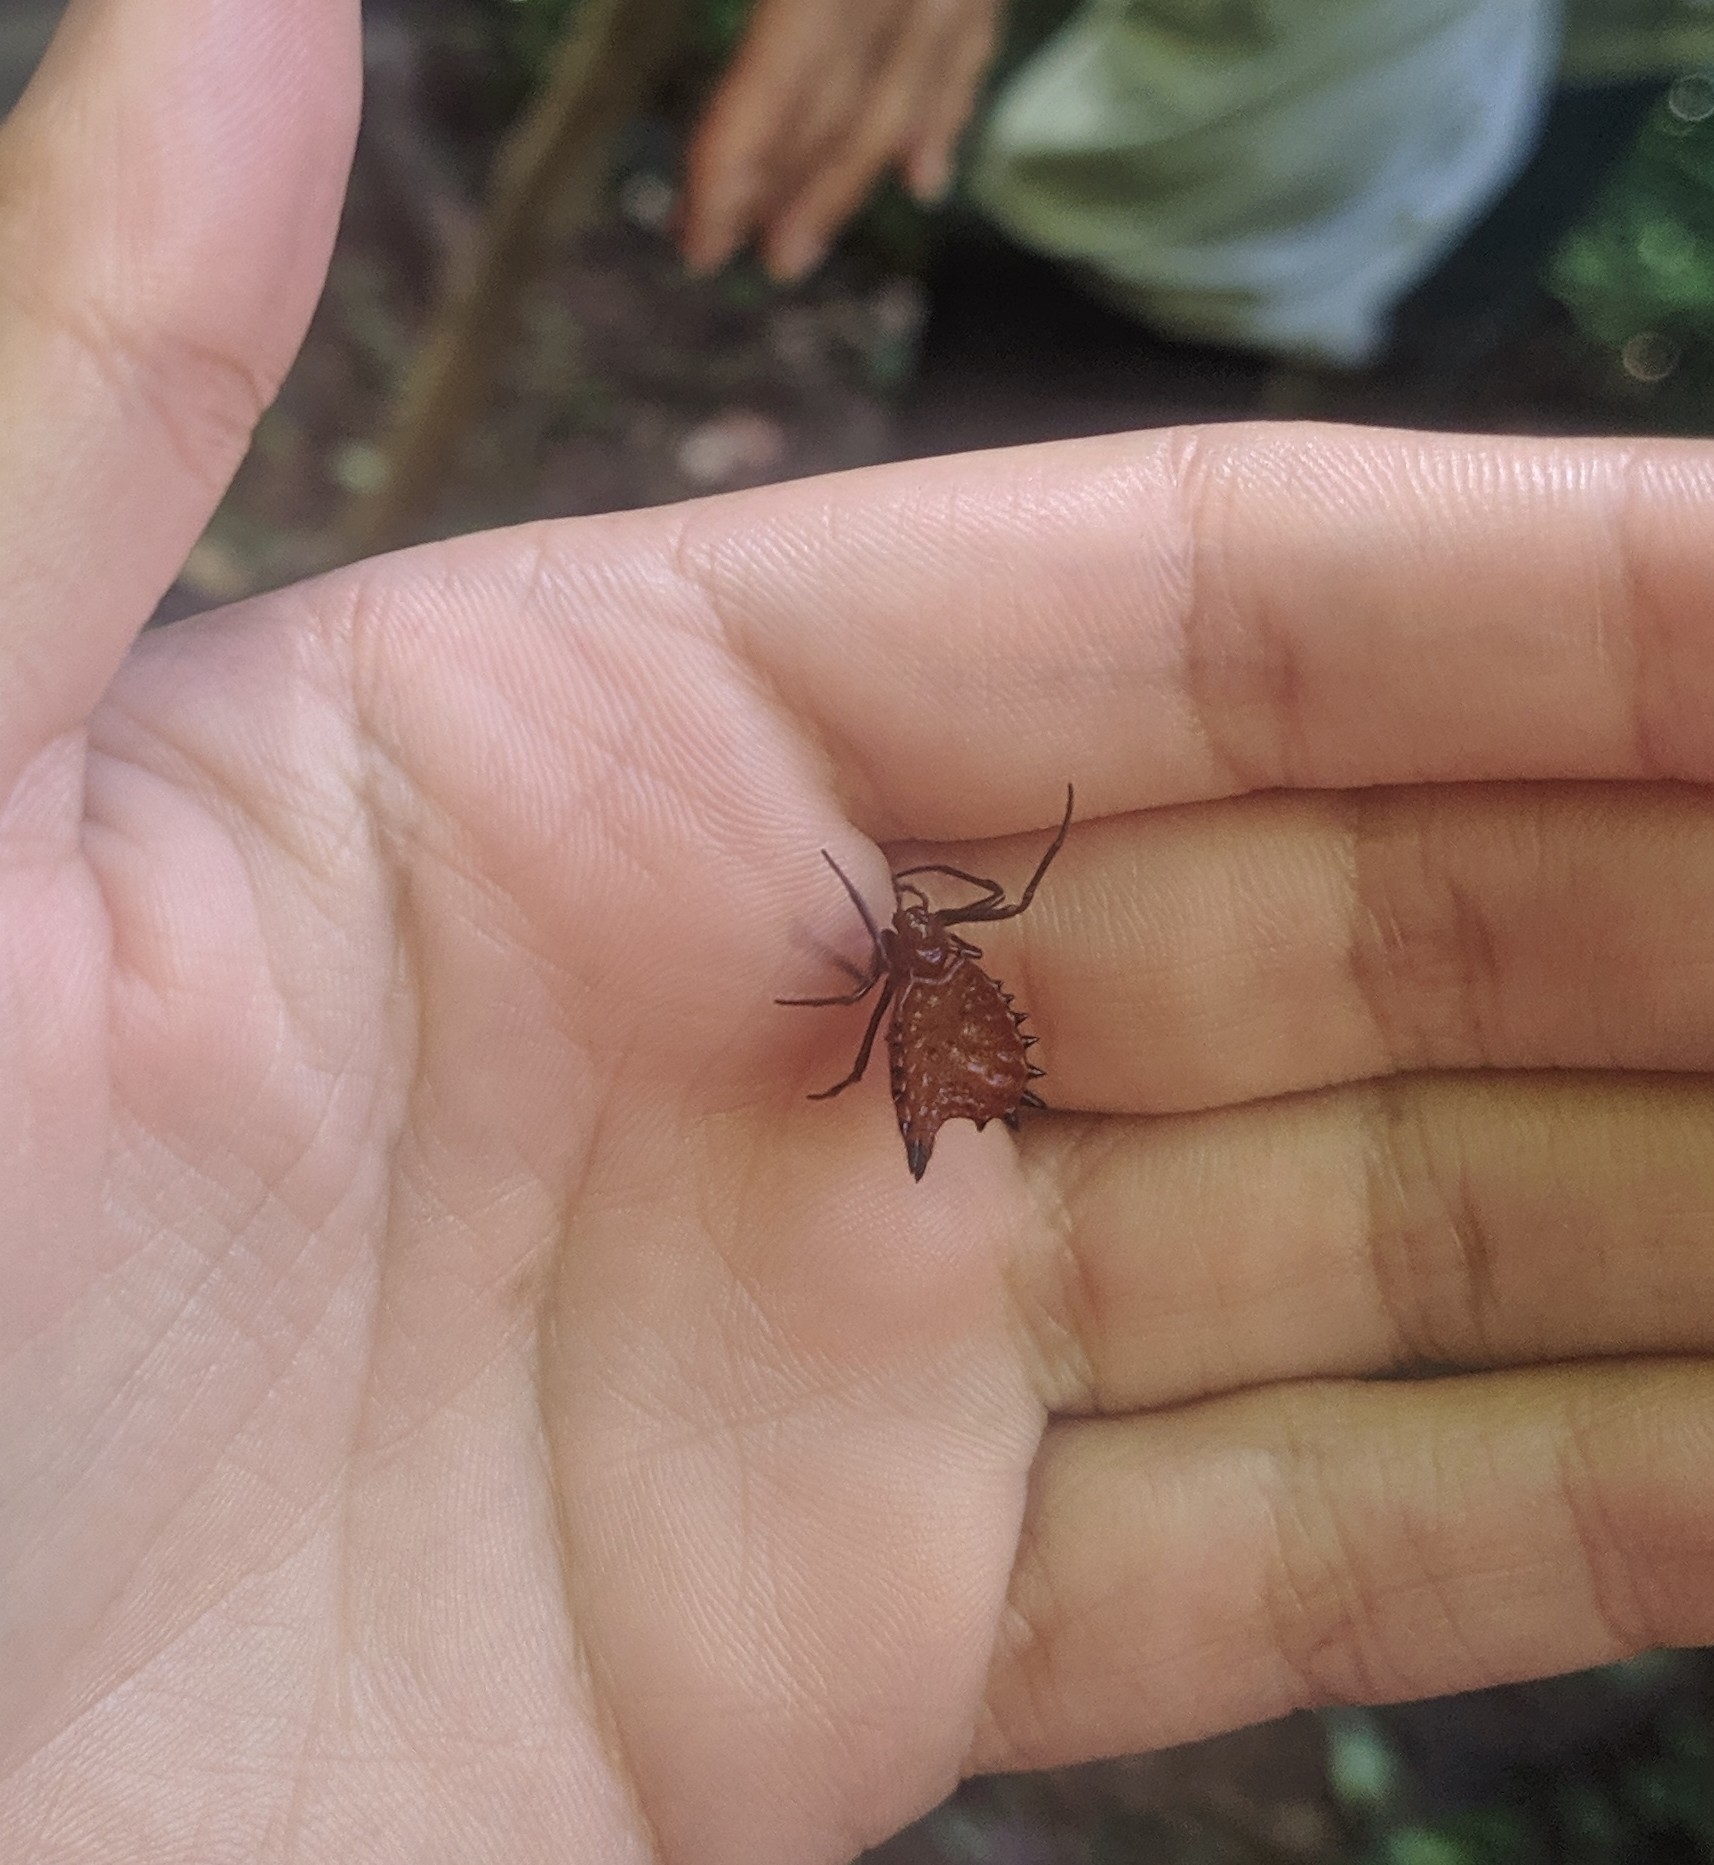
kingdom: Animalia
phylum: Arthropoda
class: Arachnida
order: Araneae
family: Araneidae
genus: Micrathena
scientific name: Micrathena ruschii
